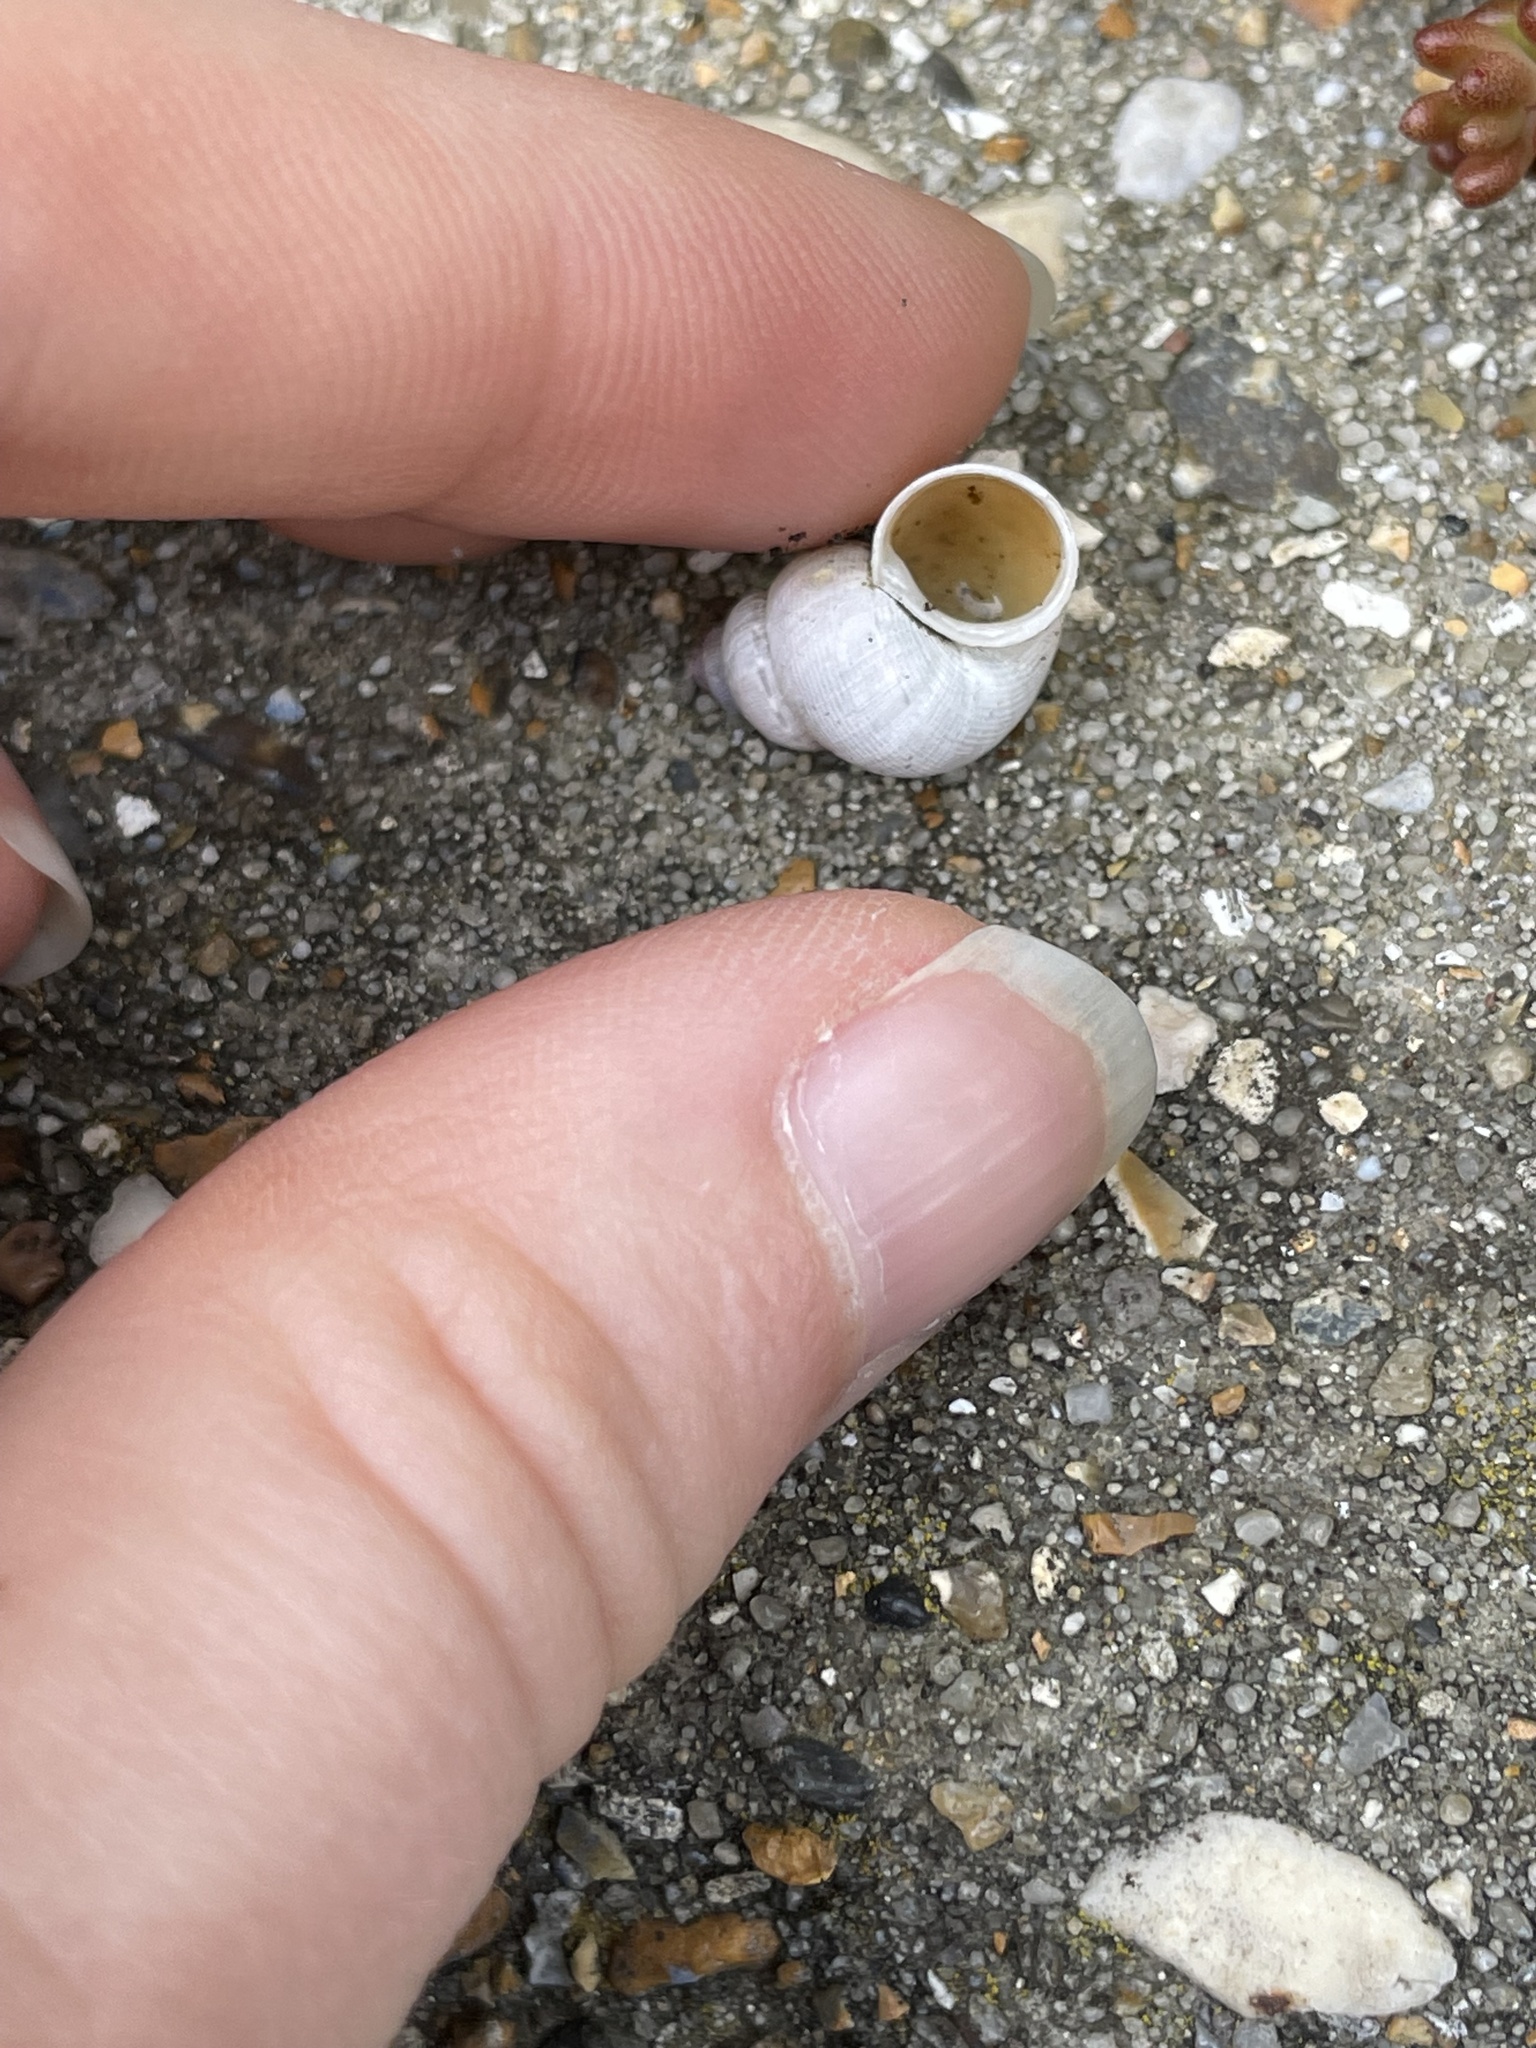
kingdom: Animalia
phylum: Mollusca
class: Gastropoda
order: Littorinimorpha
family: Pomatiidae
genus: Pomatias
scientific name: Pomatias elegans
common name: Red-mouthed snail
